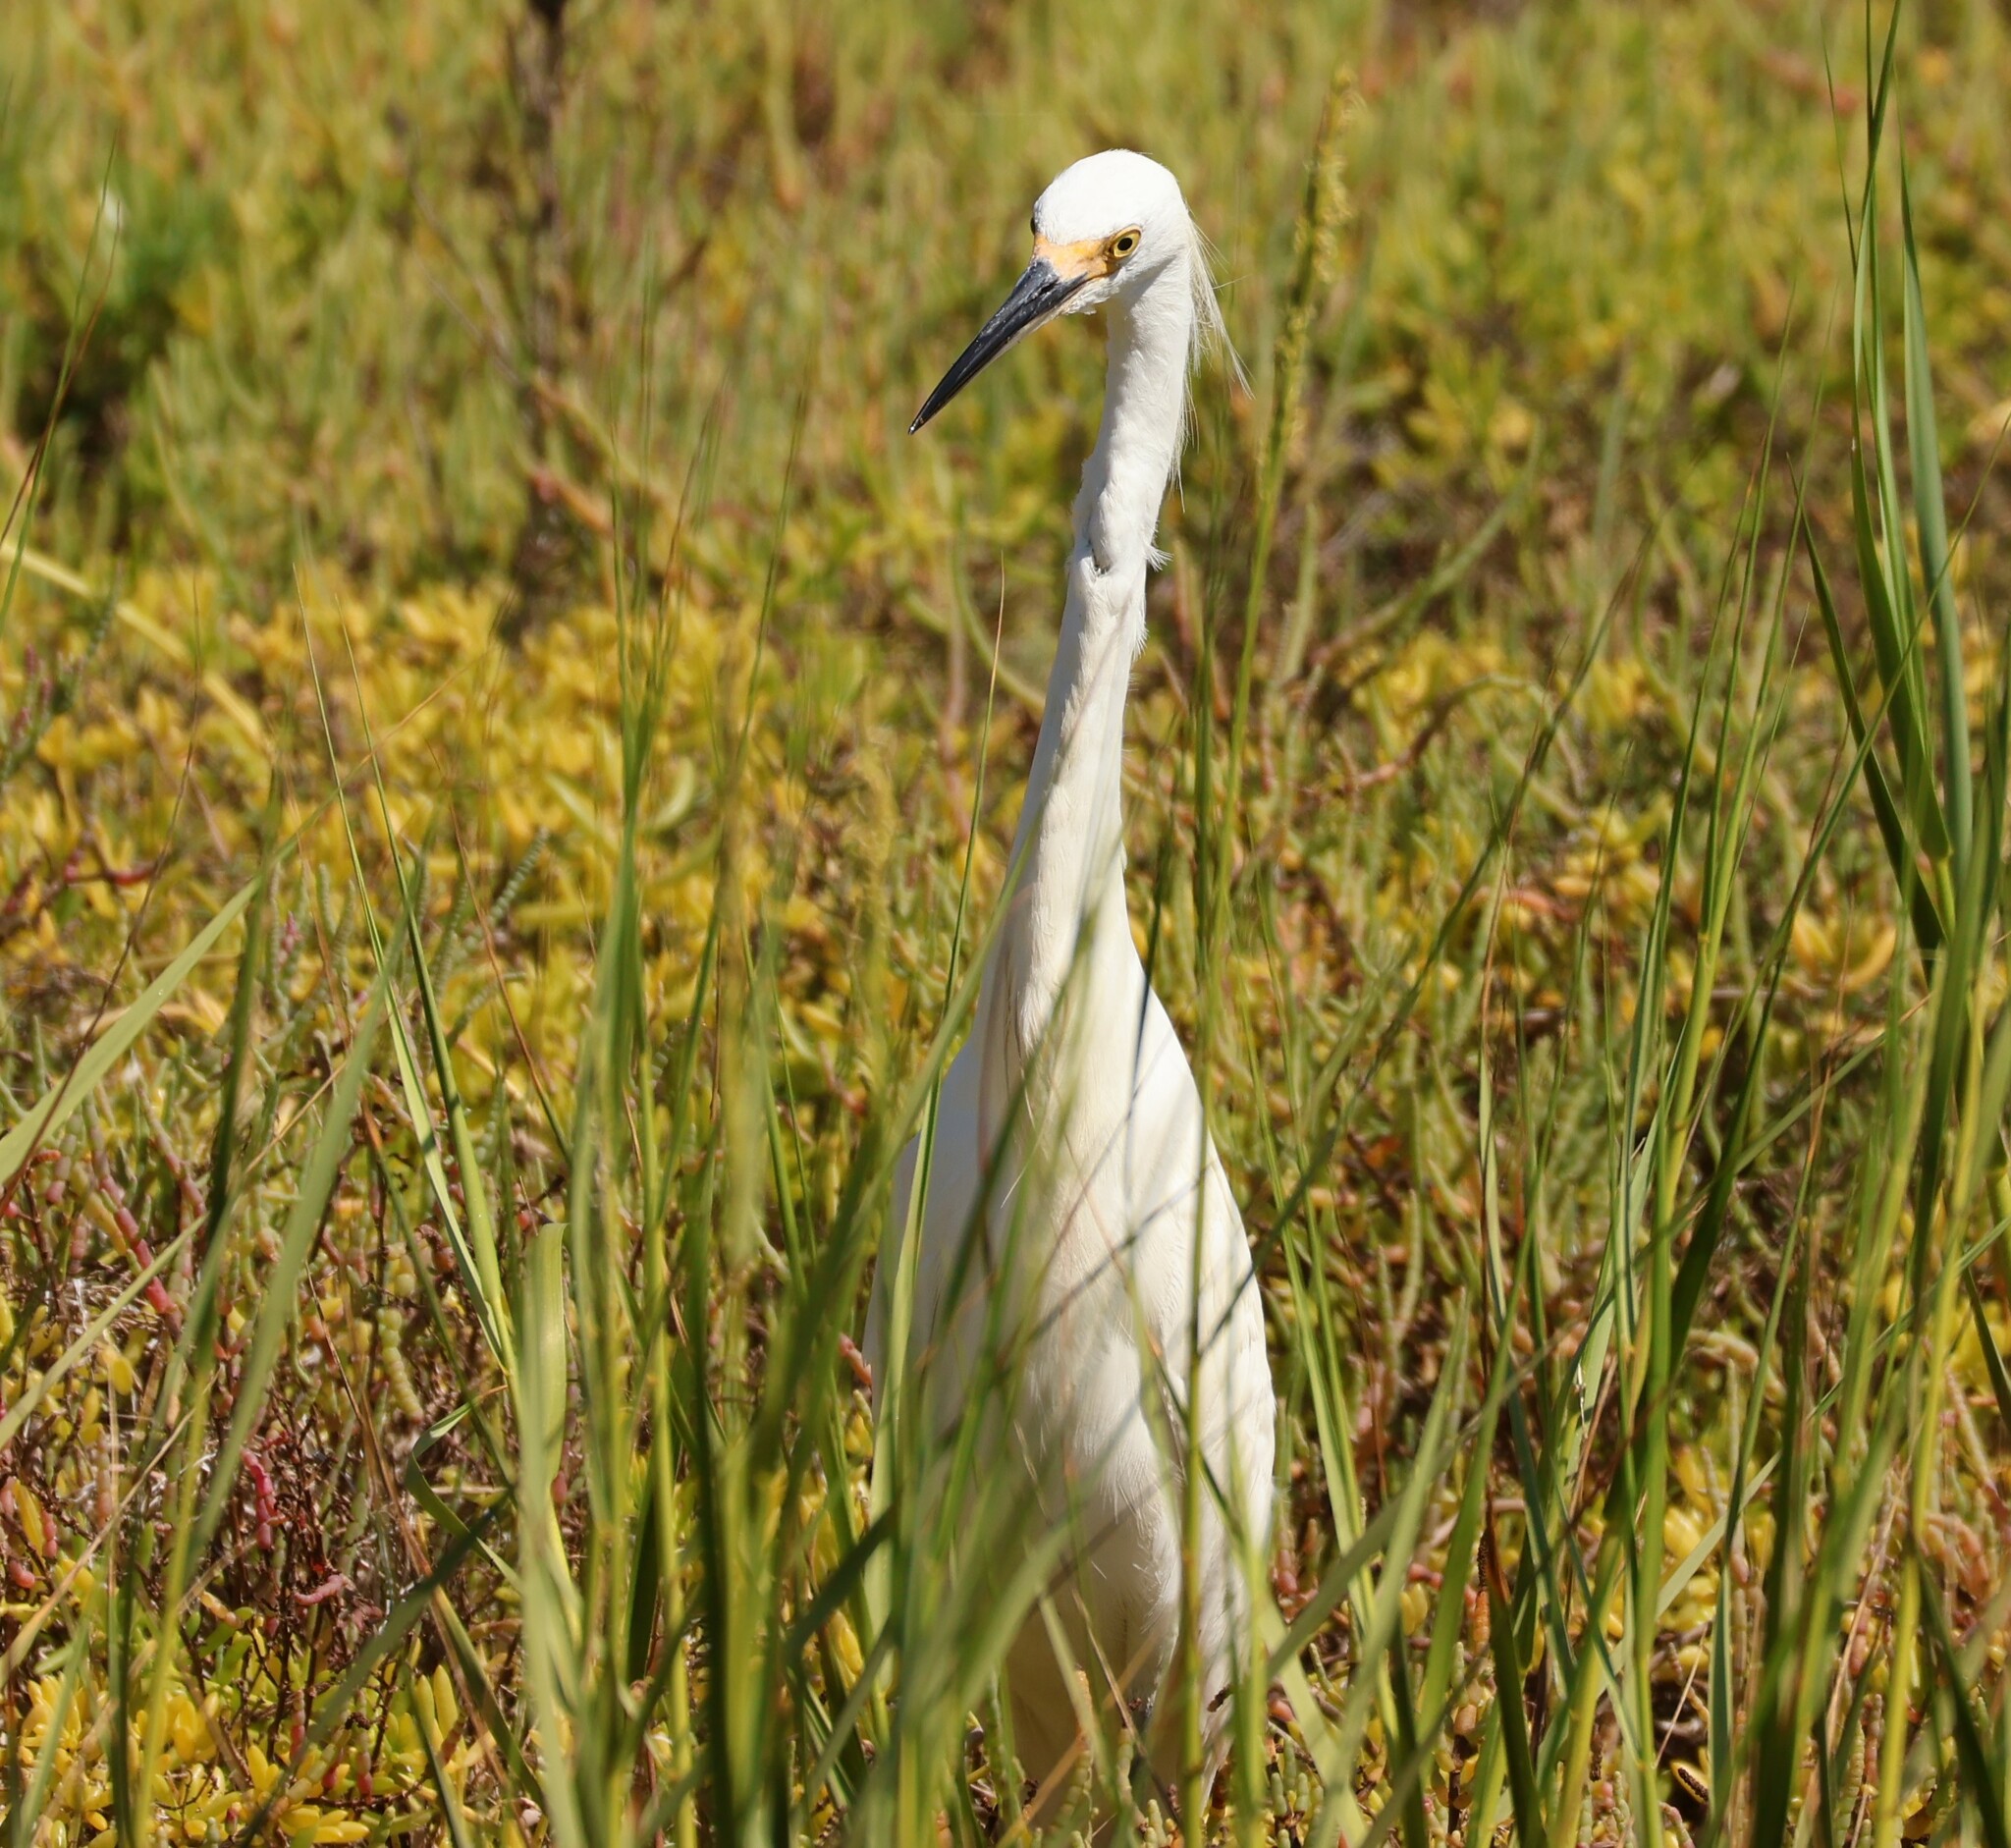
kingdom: Animalia
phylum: Chordata
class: Aves
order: Pelecaniformes
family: Ardeidae
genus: Egretta
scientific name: Egretta thula
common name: Snowy egret
